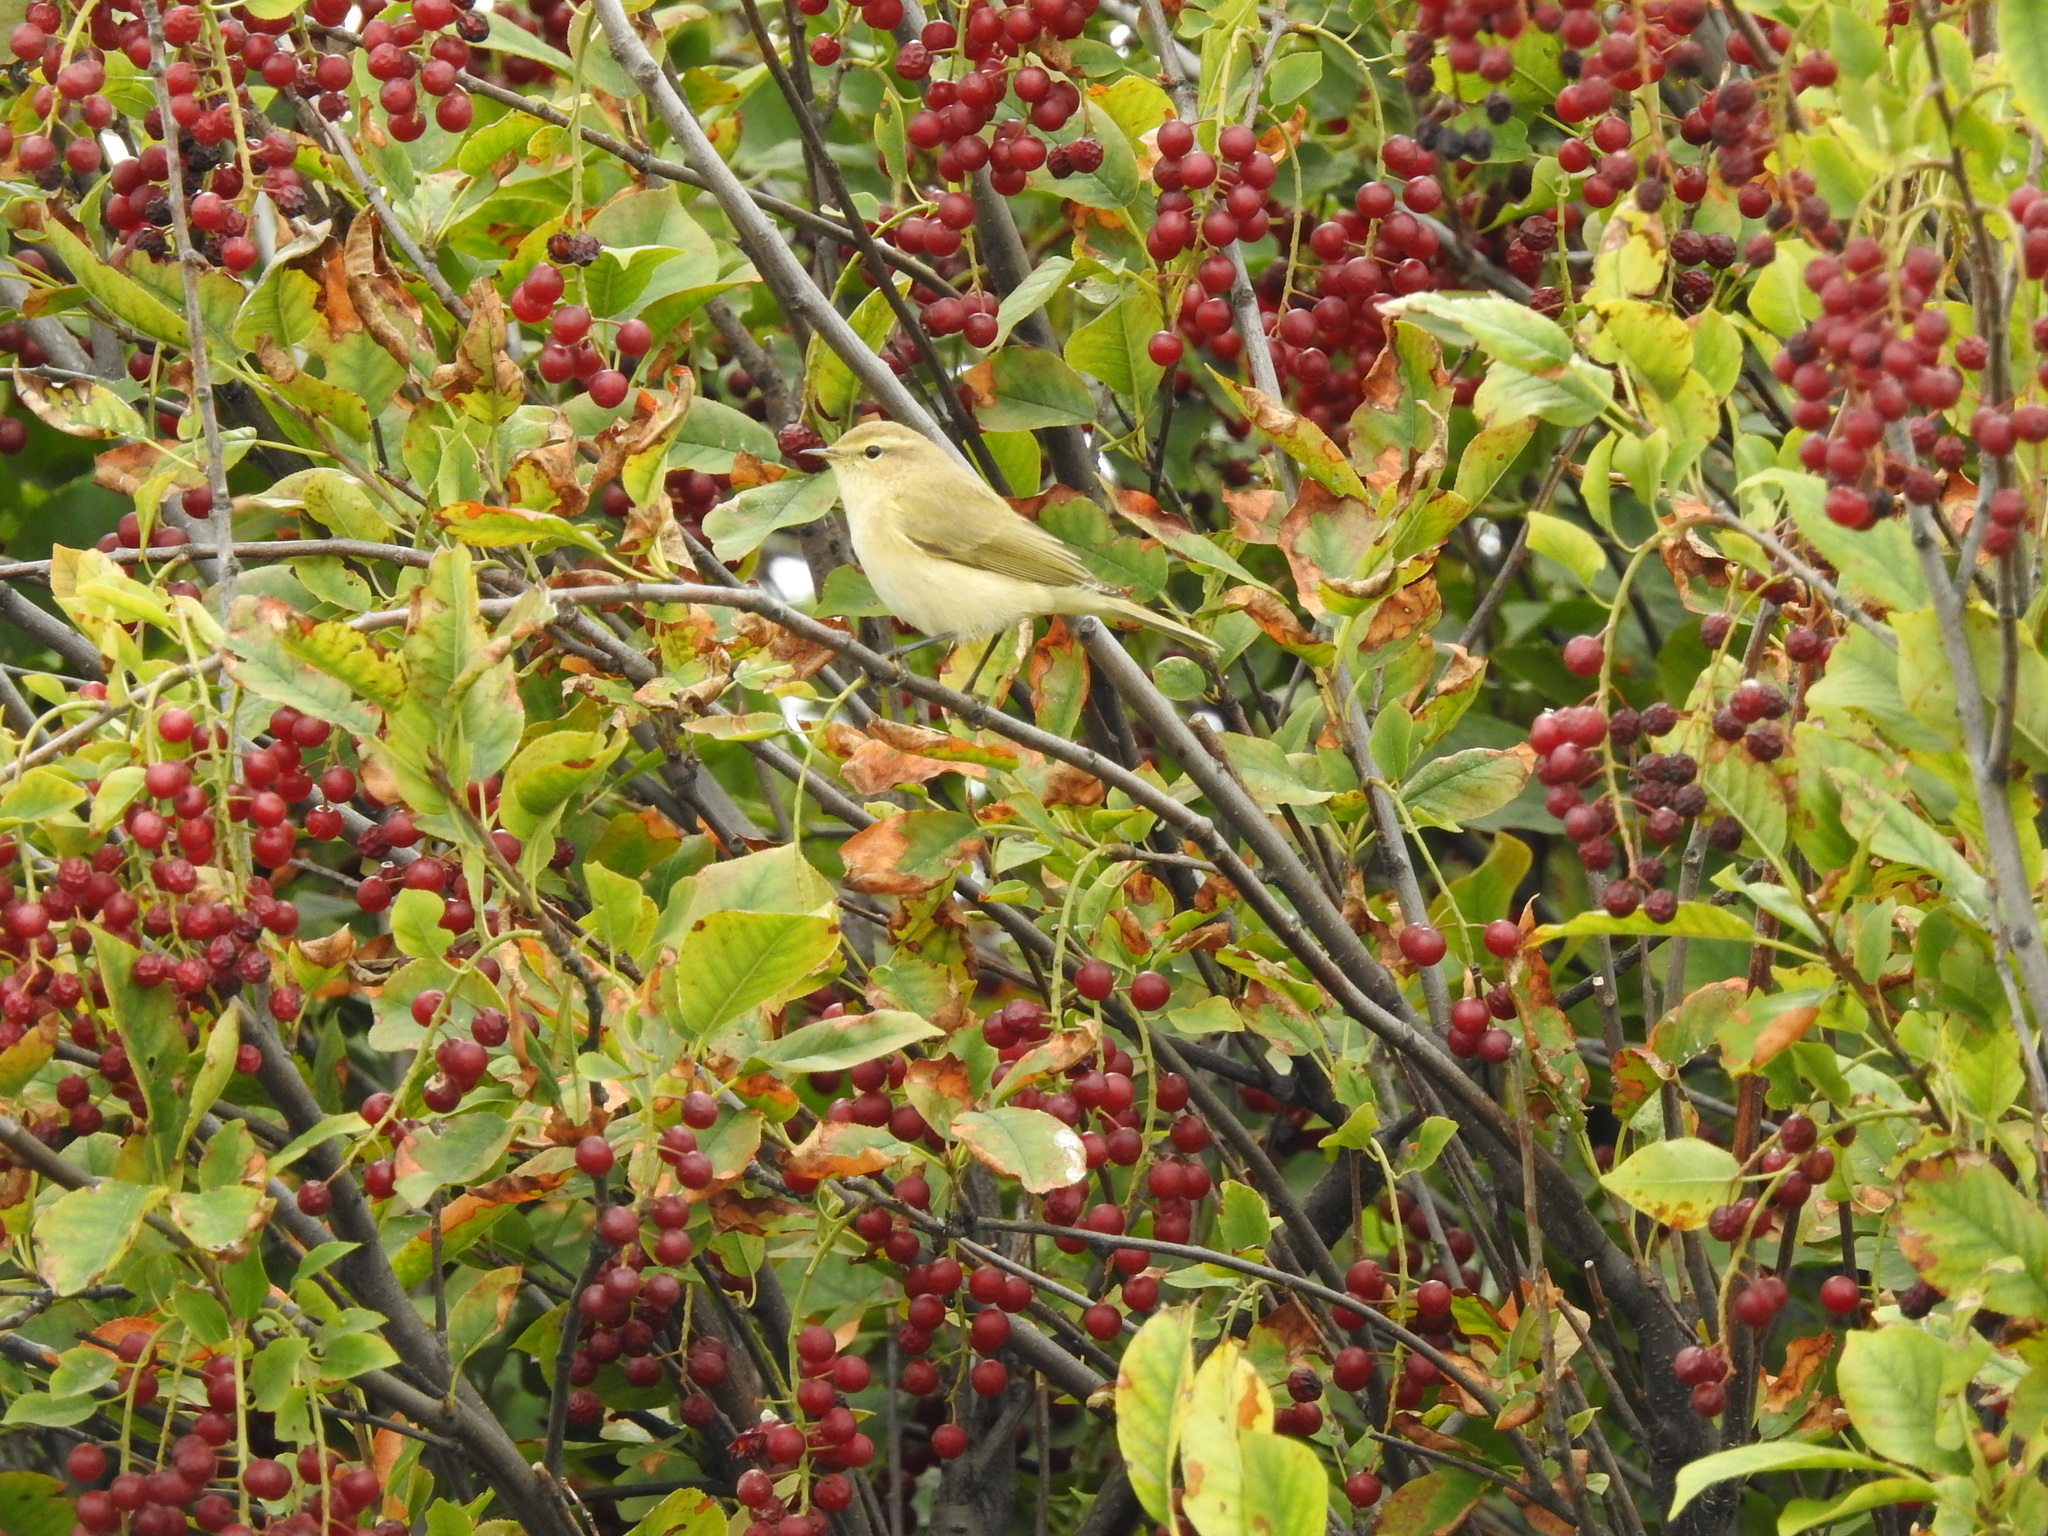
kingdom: Animalia
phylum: Chordata
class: Aves
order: Passeriformes
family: Phylloscopidae
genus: Phylloscopus
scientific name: Phylloscopus collybita
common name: Common chiffchaff
